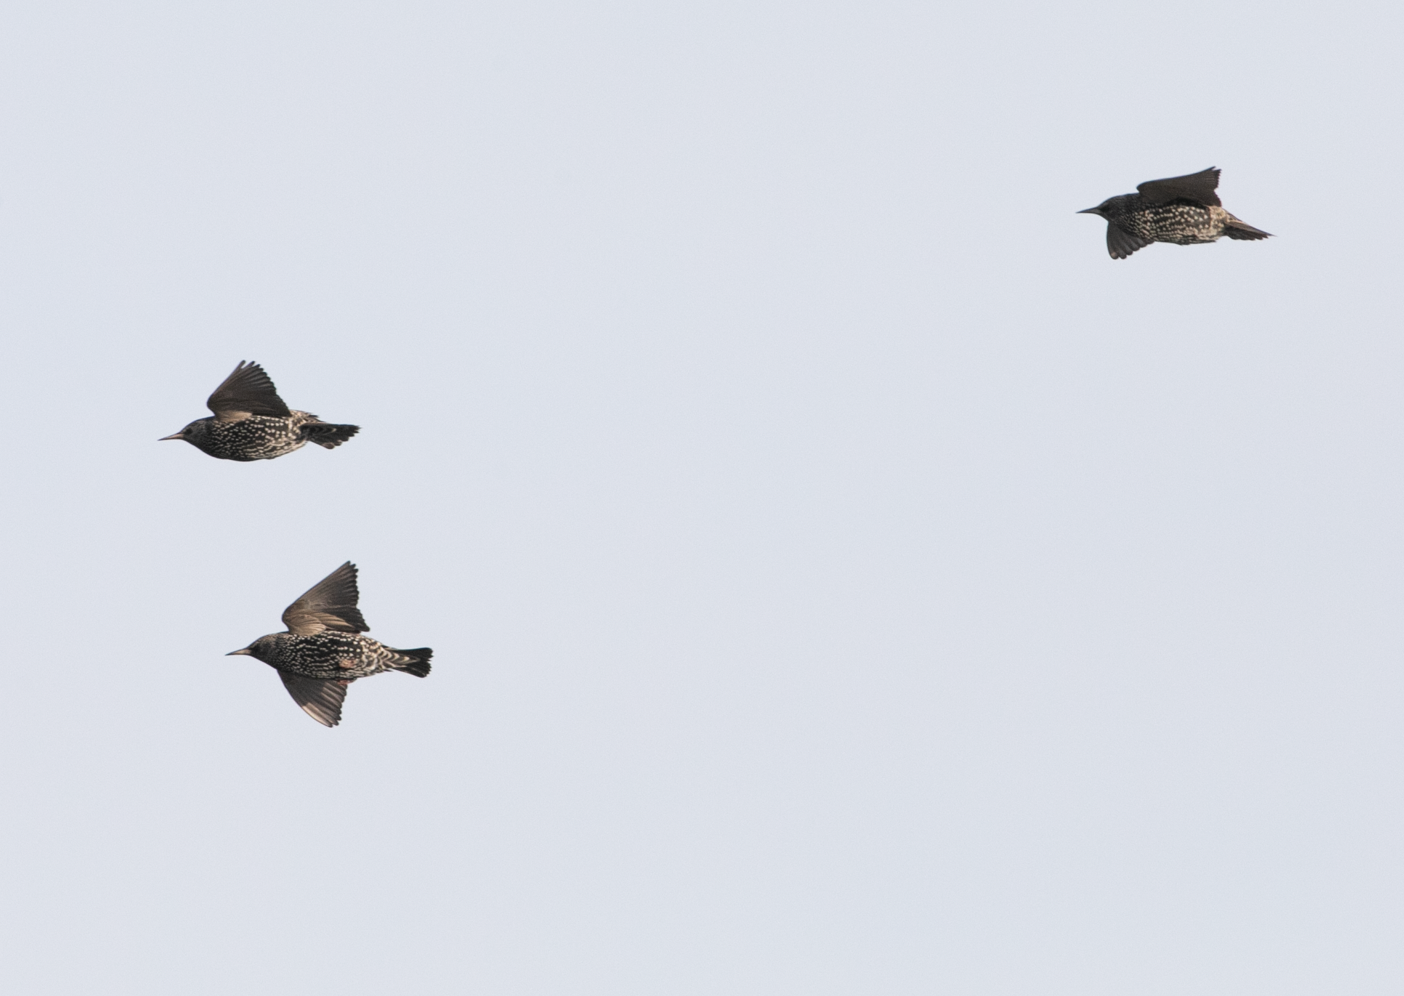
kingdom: Animalia
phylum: Chordata
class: Aves
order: Passeriformes
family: Sturnidae
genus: Sturnus
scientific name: Sturnus vulgaris
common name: Common starling
